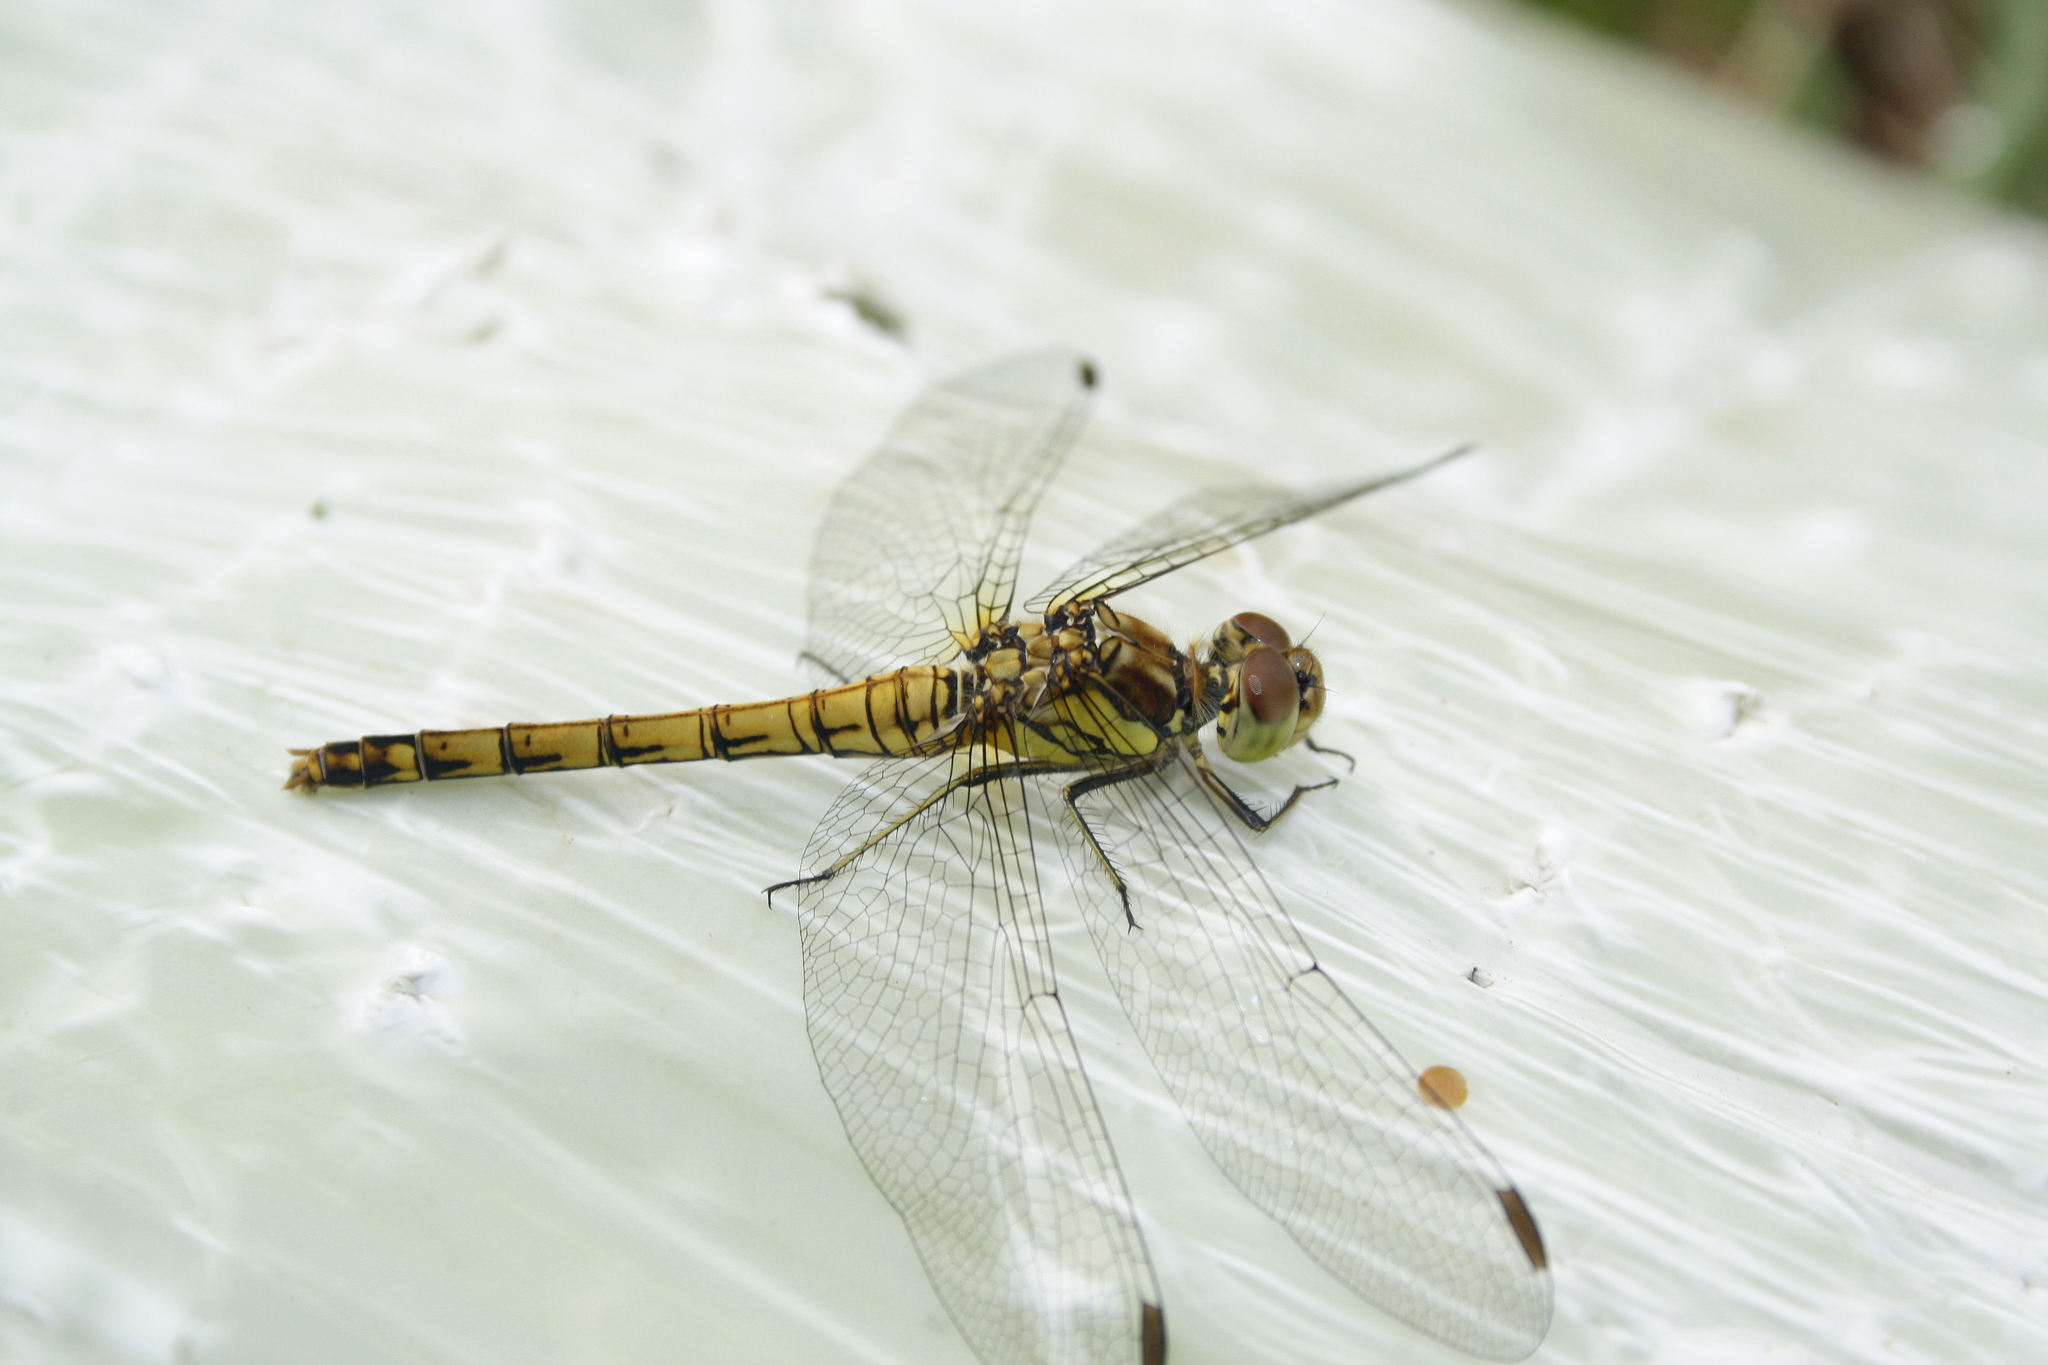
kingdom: Animalia
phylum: Arthropoda
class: Insecta
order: Odonata
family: Libellulidae
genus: Sympetrum
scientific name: Sympetrum striolatum
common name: Common darter
